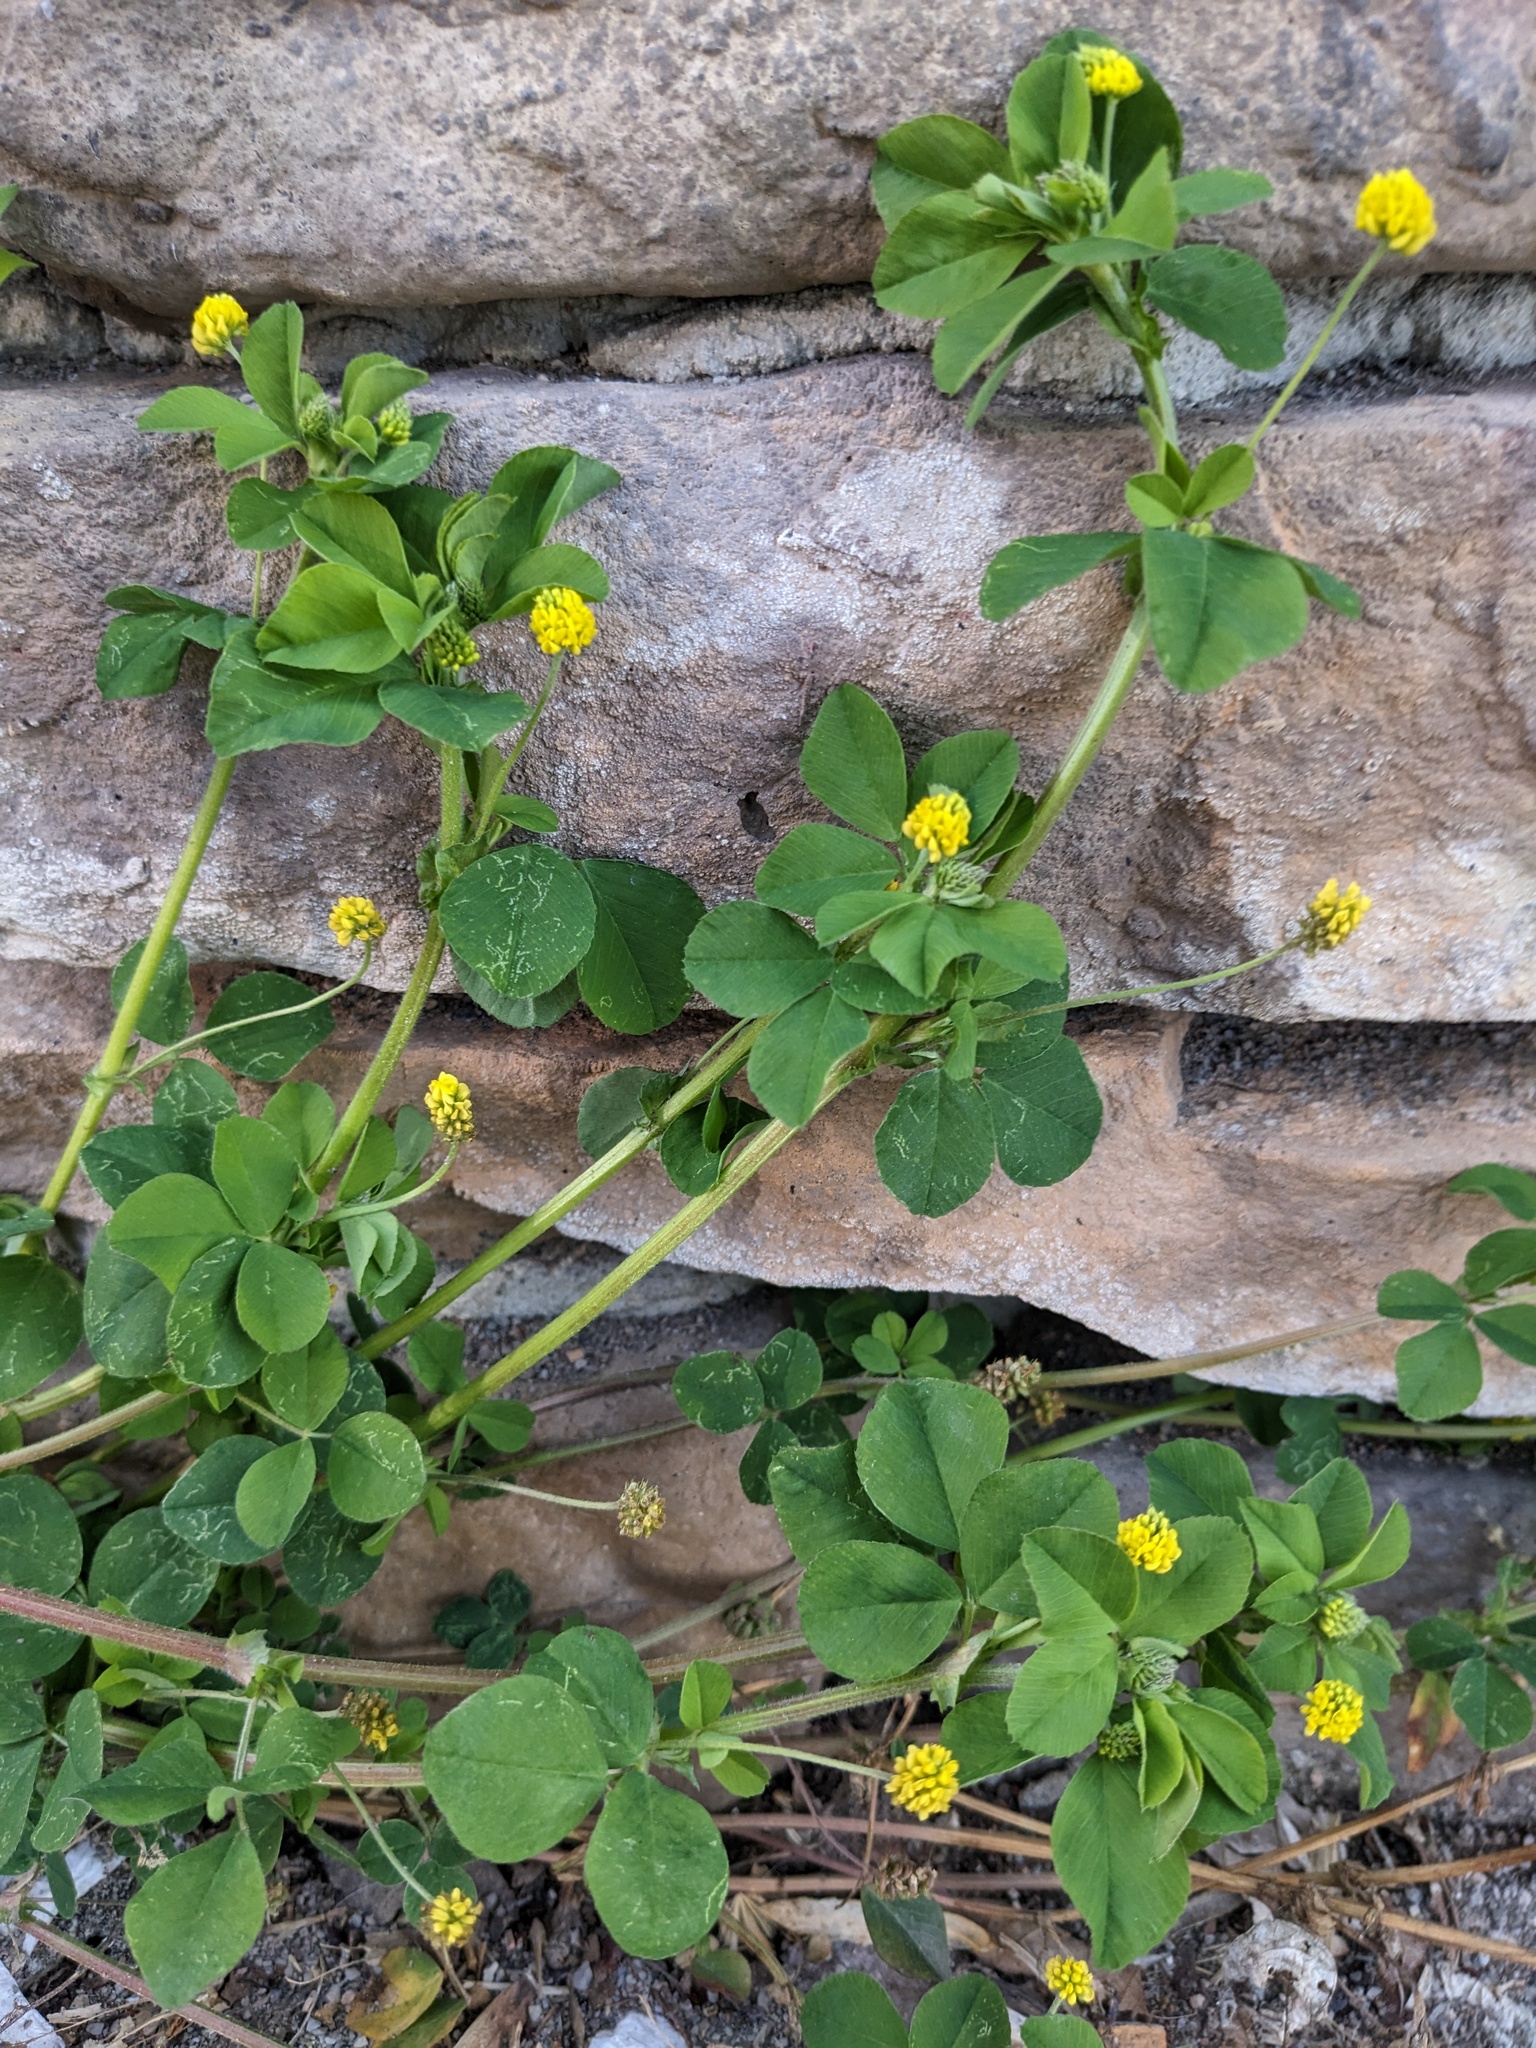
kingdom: Plantae
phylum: Tracheophyta
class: Magnoliopsida
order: Fabales
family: Fabaceae
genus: Medicago
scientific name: Medicago lupulina
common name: Black medick
